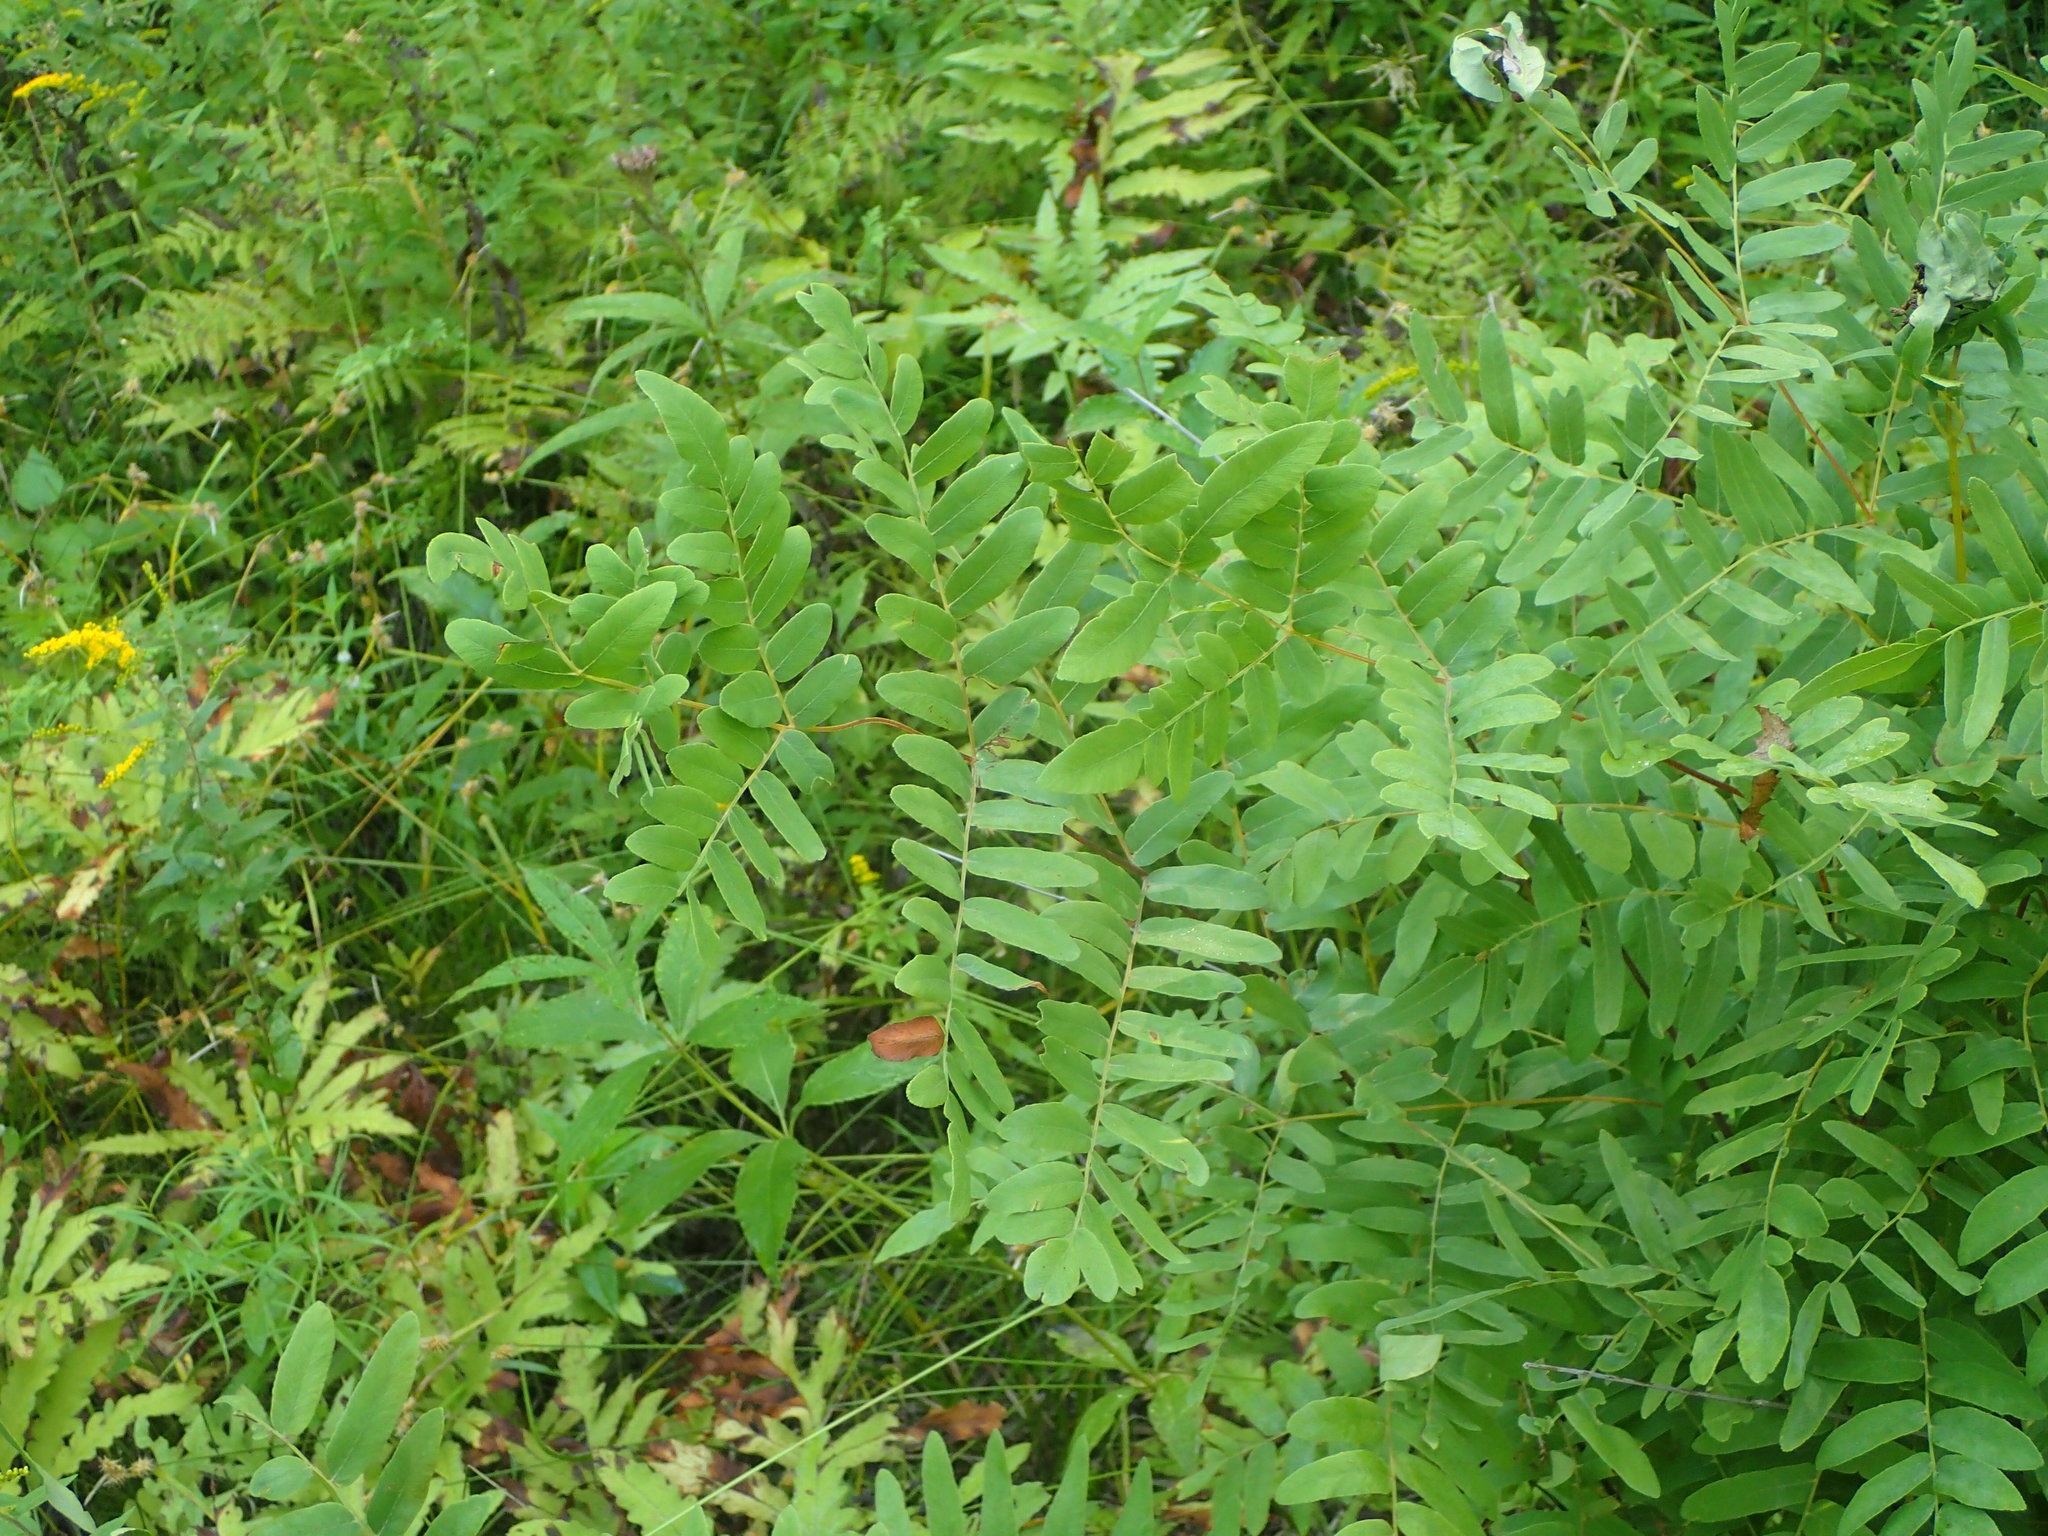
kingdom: Plantae
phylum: Tracheophyta
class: Polypodiopsida
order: Osmundales
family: Osmundaceae
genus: Osmunda
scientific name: Osmunda spectabilis
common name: American royal fern
